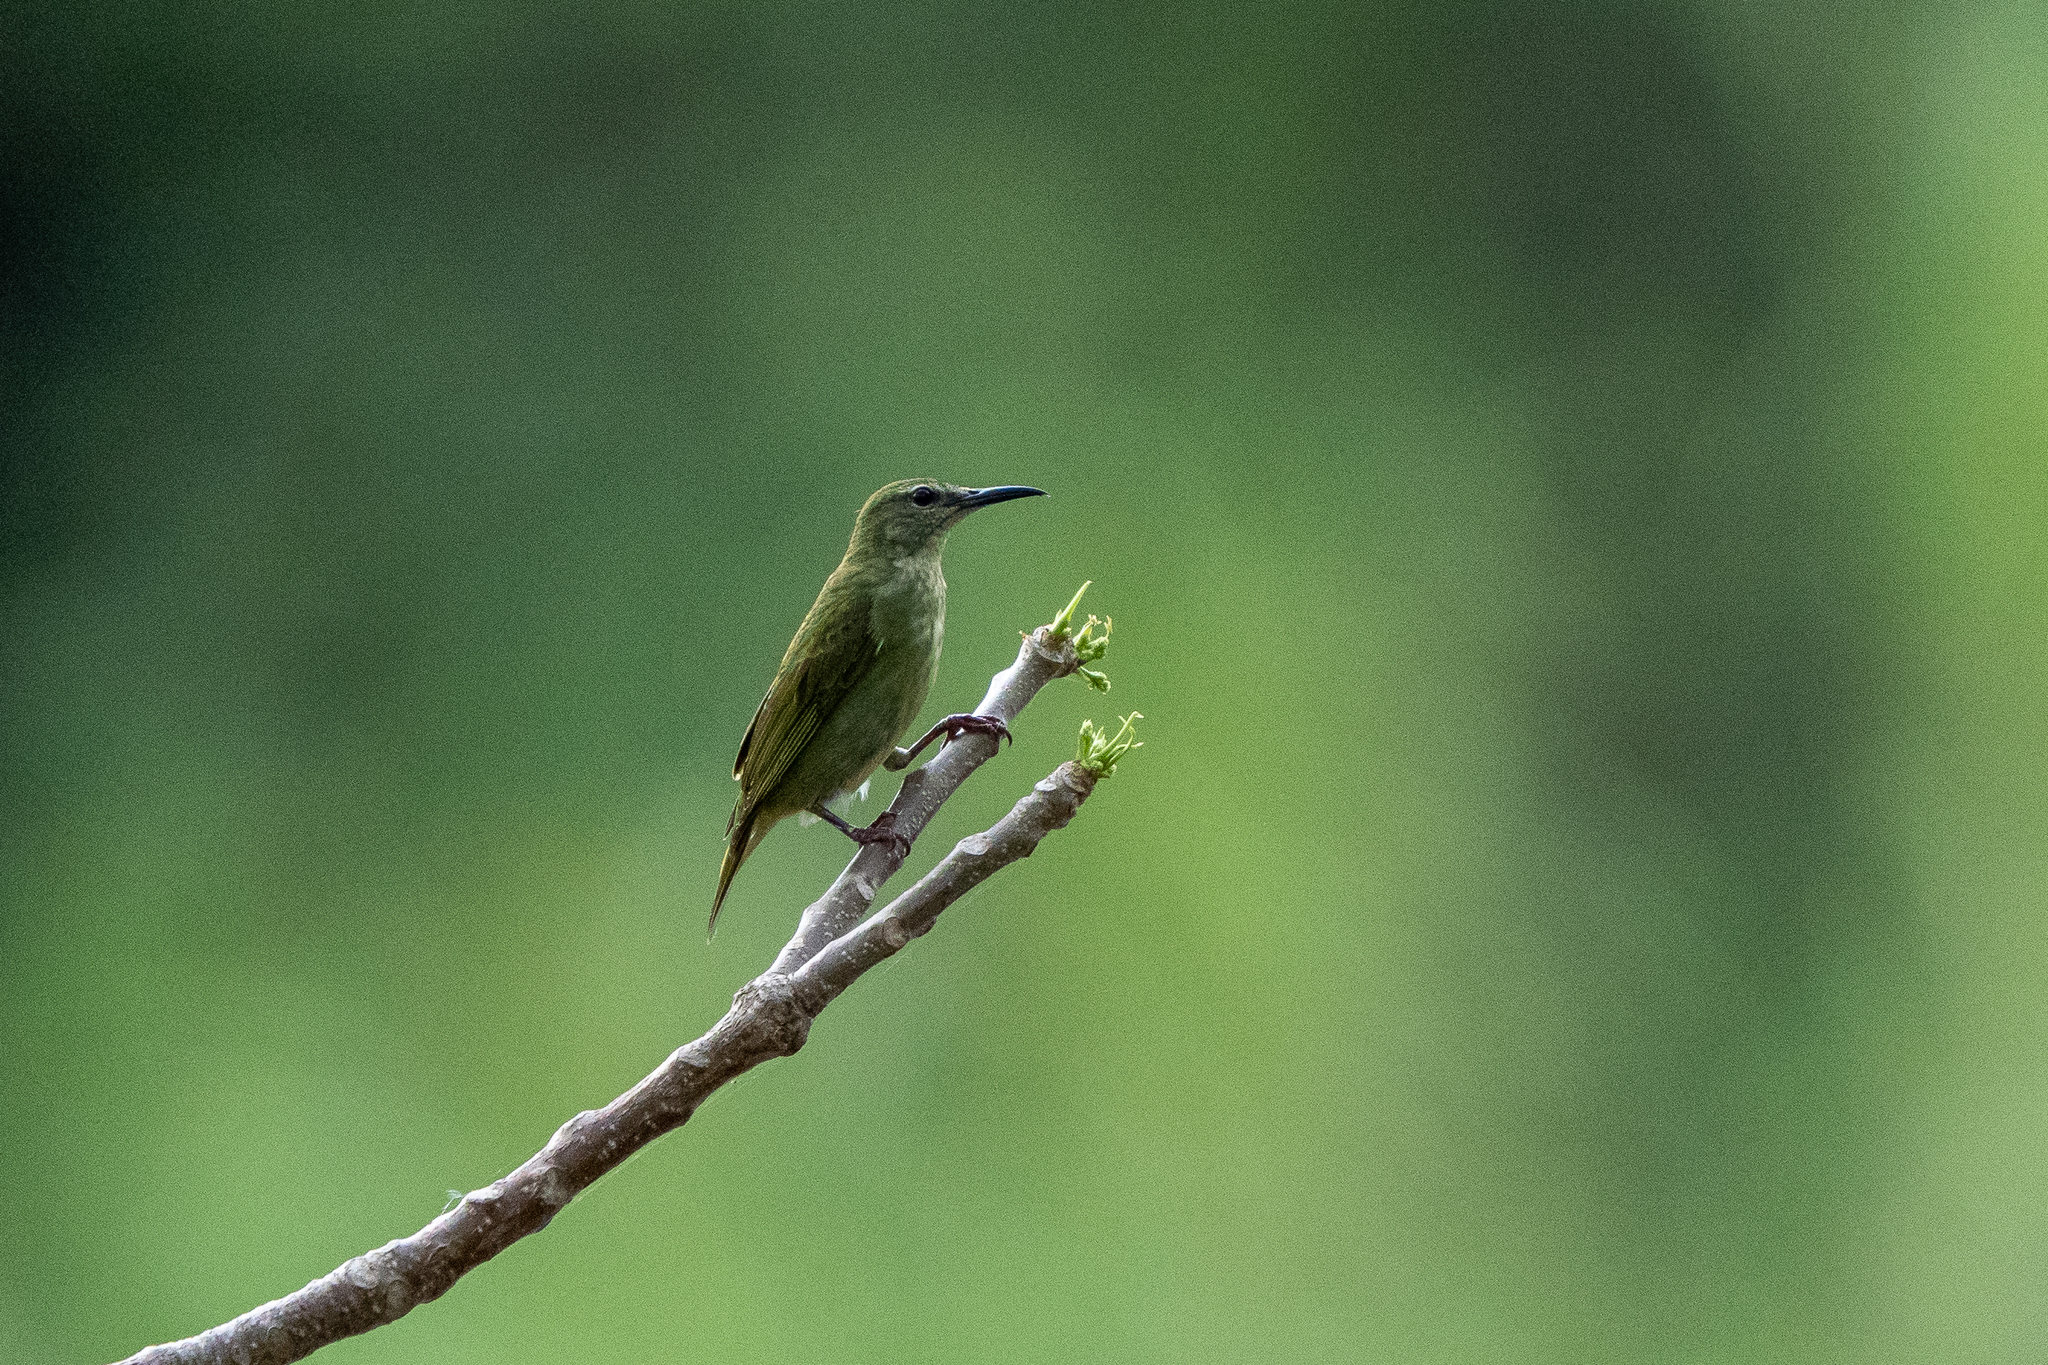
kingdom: Animalia
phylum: Chordata
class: Aves
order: Passeriformes
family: Thraupidae
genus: Cyanerpes
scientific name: Cyanerpes cyaneus
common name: Red-legged honeycreeper
